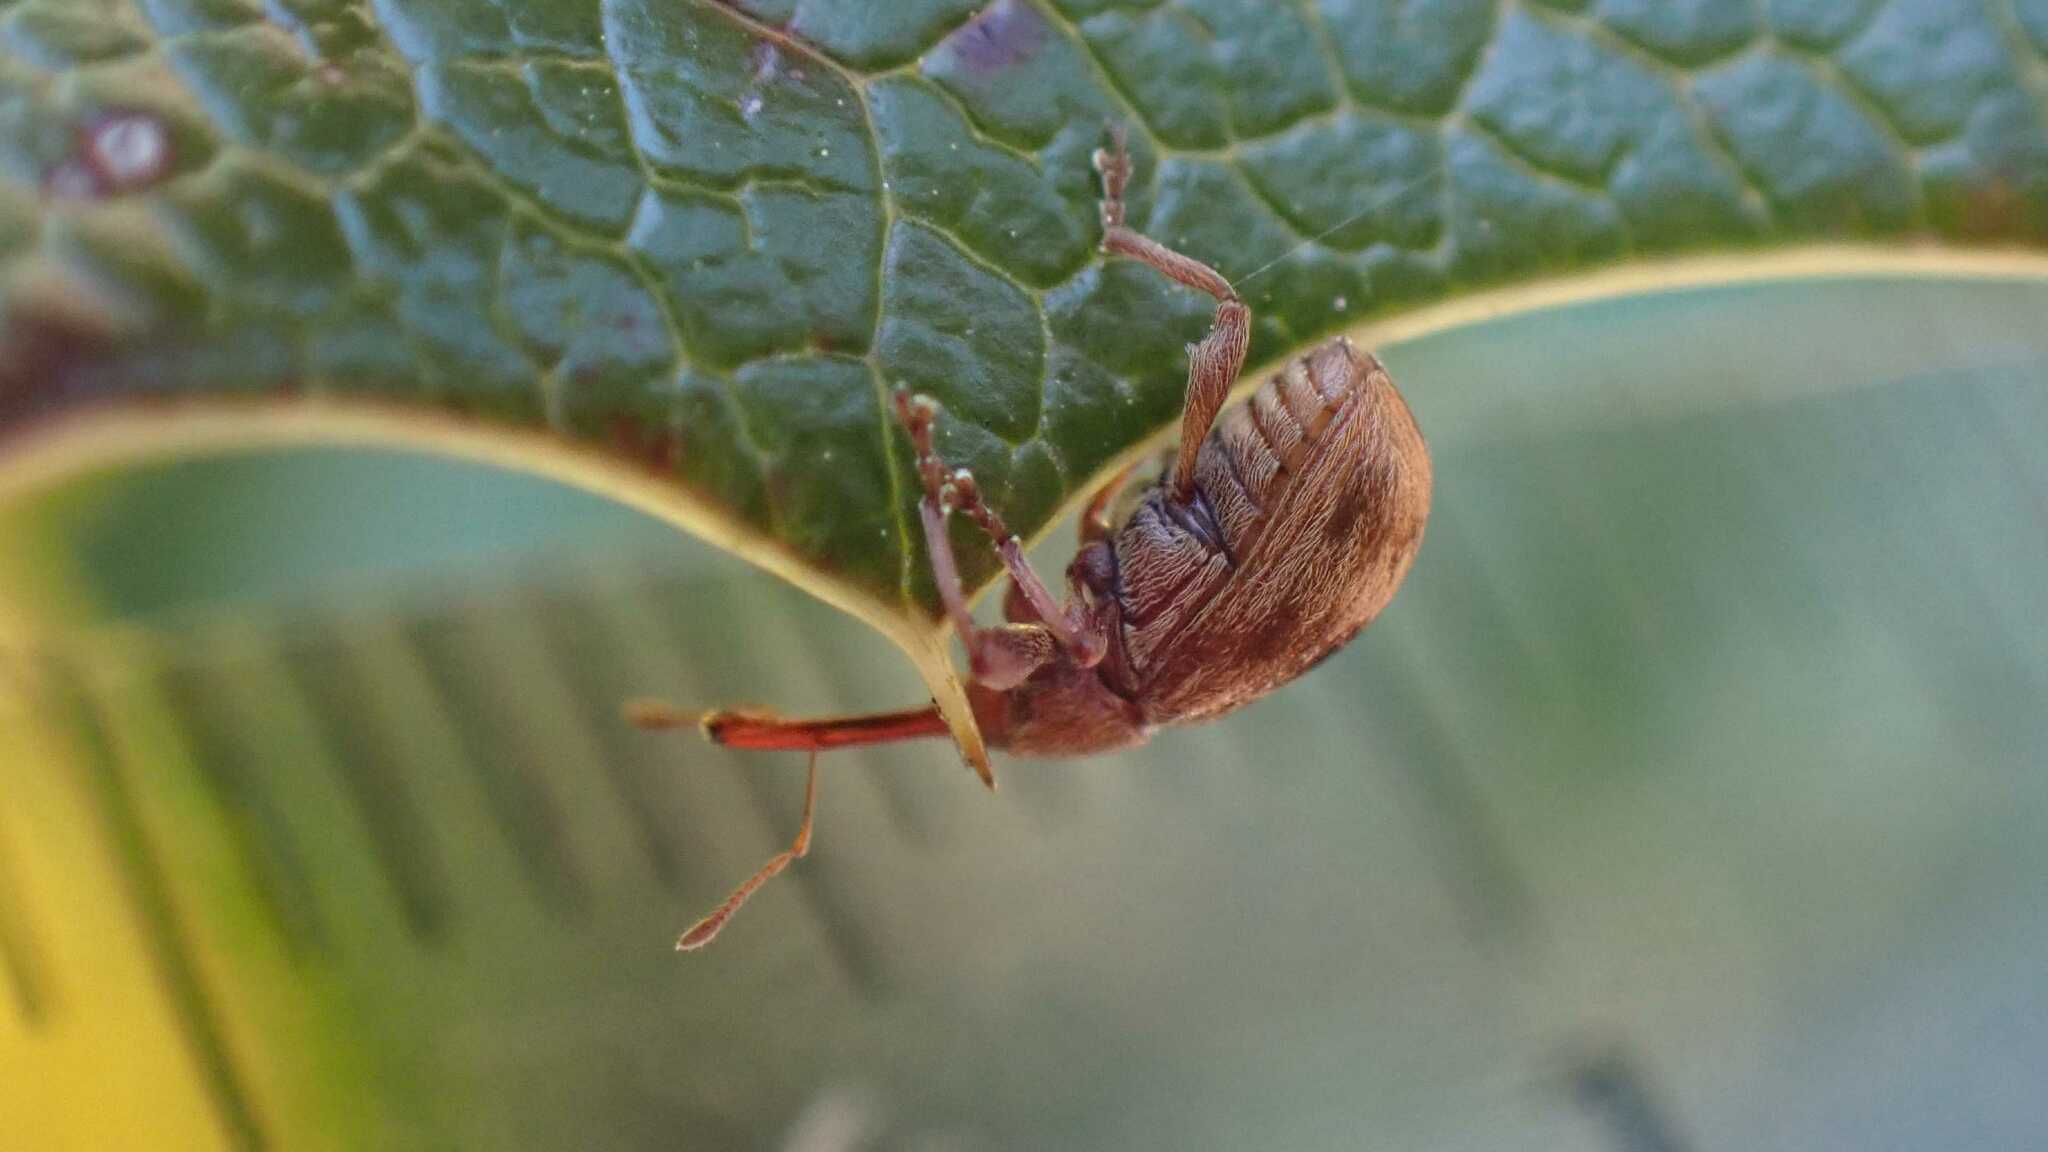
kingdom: Animalia
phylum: Arthropoda
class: Insecta
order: Coleoptera
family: Curculionidae
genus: Anthonomus
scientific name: Anthonomus rectirostris
